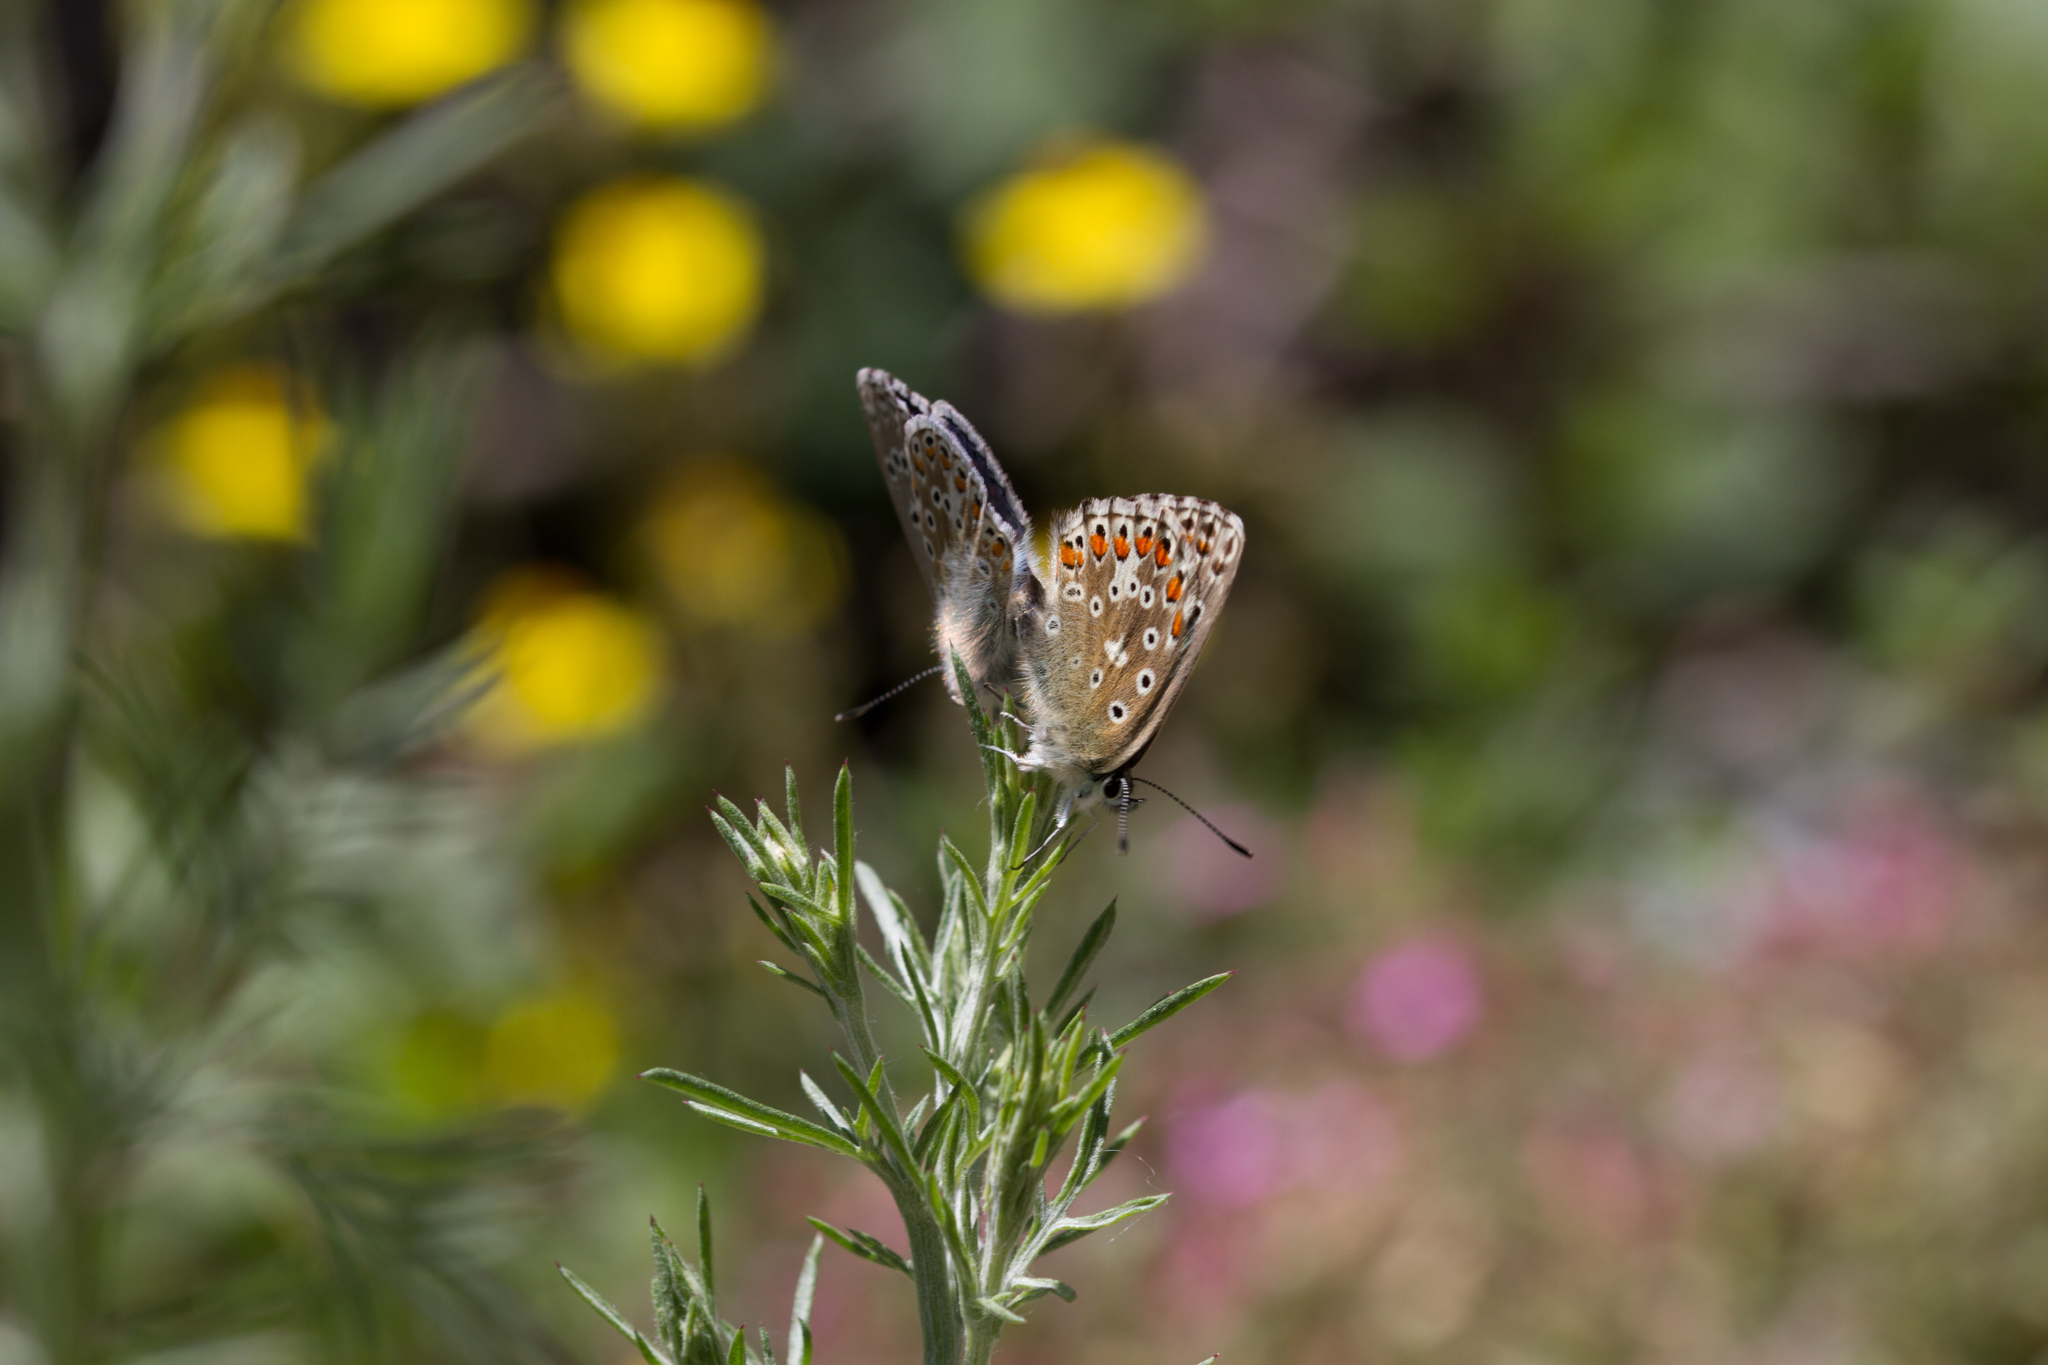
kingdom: Animalia
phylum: Arthropoda
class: Insecta
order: Lepidoptera
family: Lycaenidae
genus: Lysandra
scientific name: Lysandra bellargus
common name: Adonis blue
